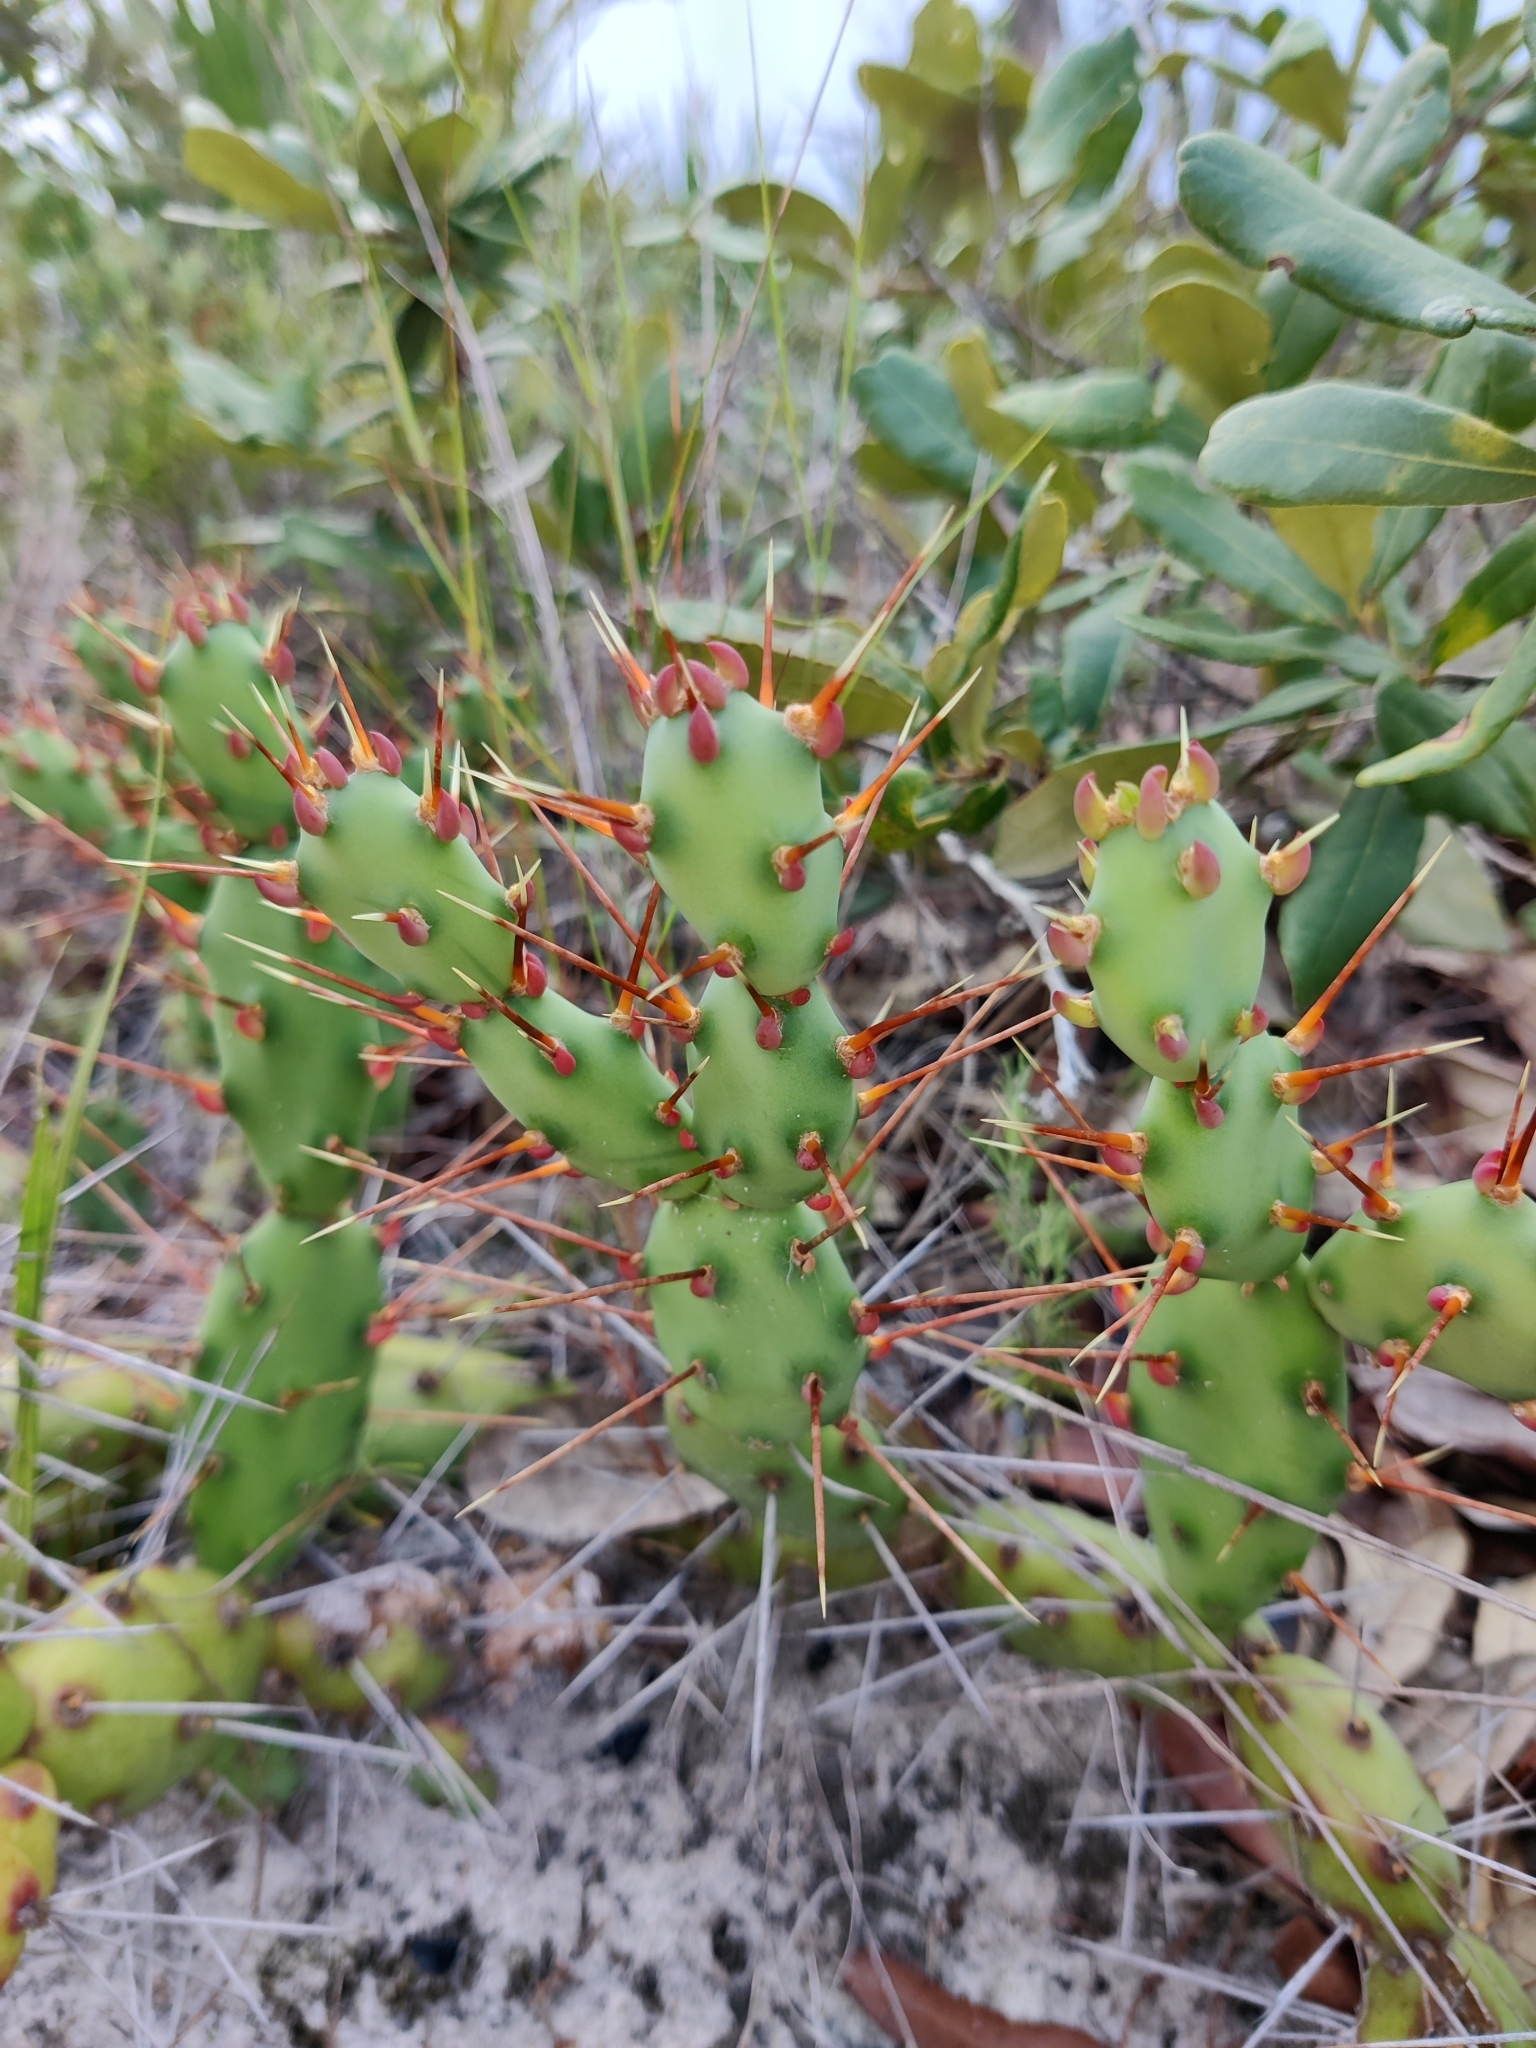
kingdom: Plantae
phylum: Tracheophyta
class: Magnoliopsida
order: Caryophyllales
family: Cactaceae
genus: Opuntia
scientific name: Opuntia drummondii
